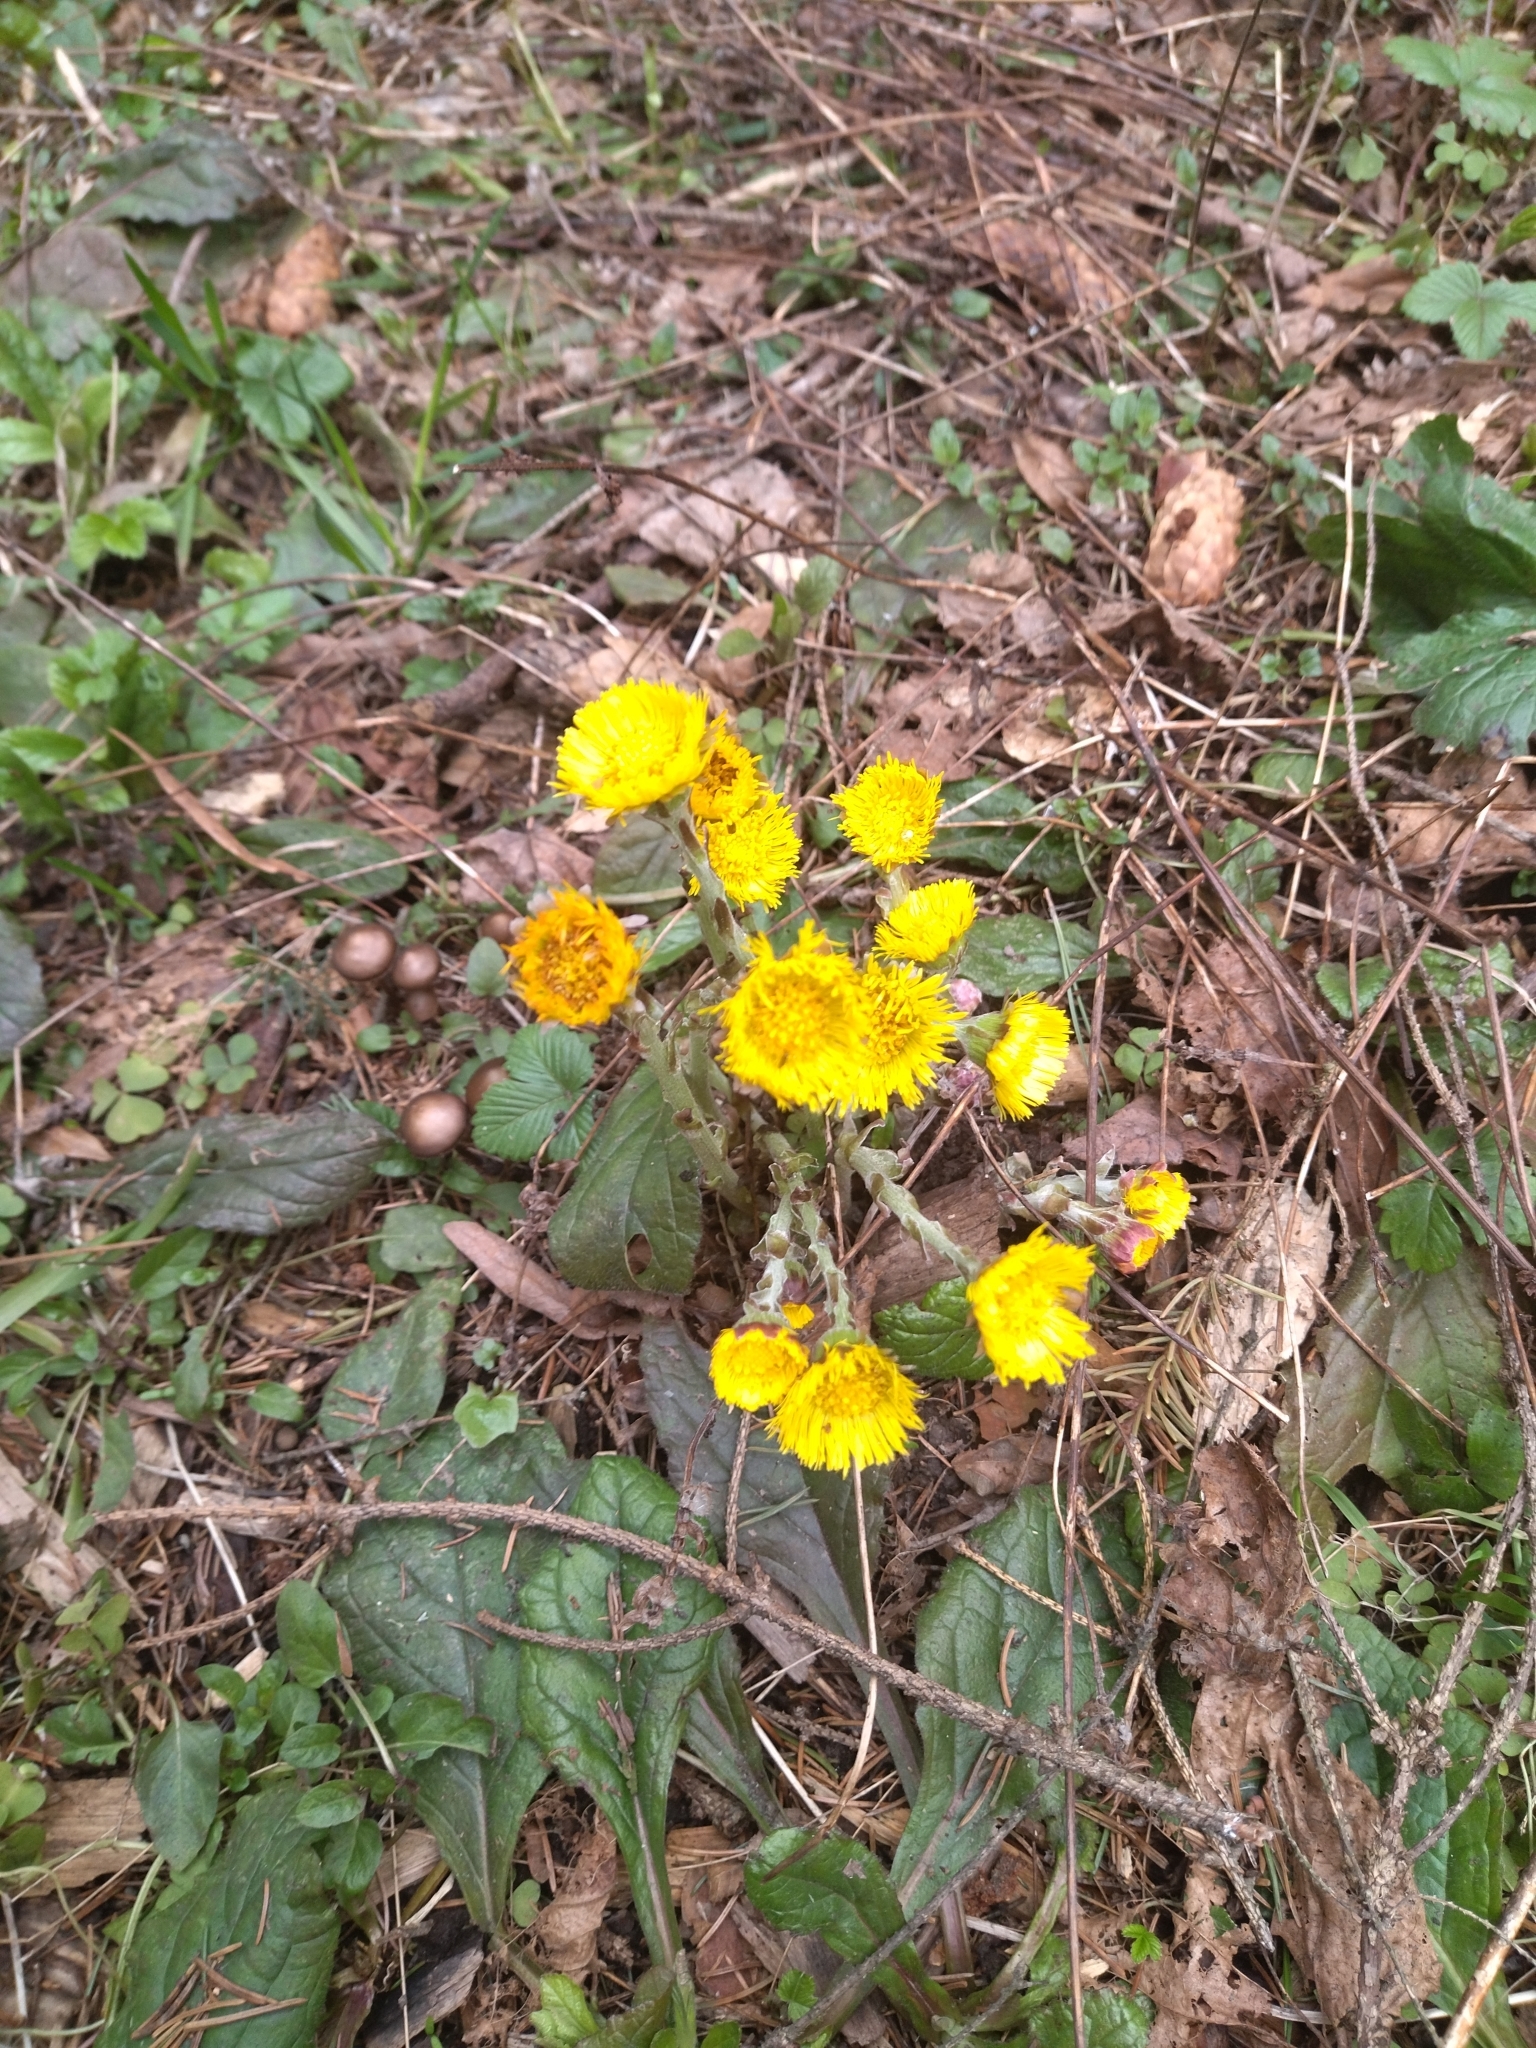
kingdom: Plantae
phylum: Tracheophyta
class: Magnoliopsida
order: Asterales
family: Asteraceae
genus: Tussilago
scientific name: Tussilago farfara
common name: Coltsfoot
